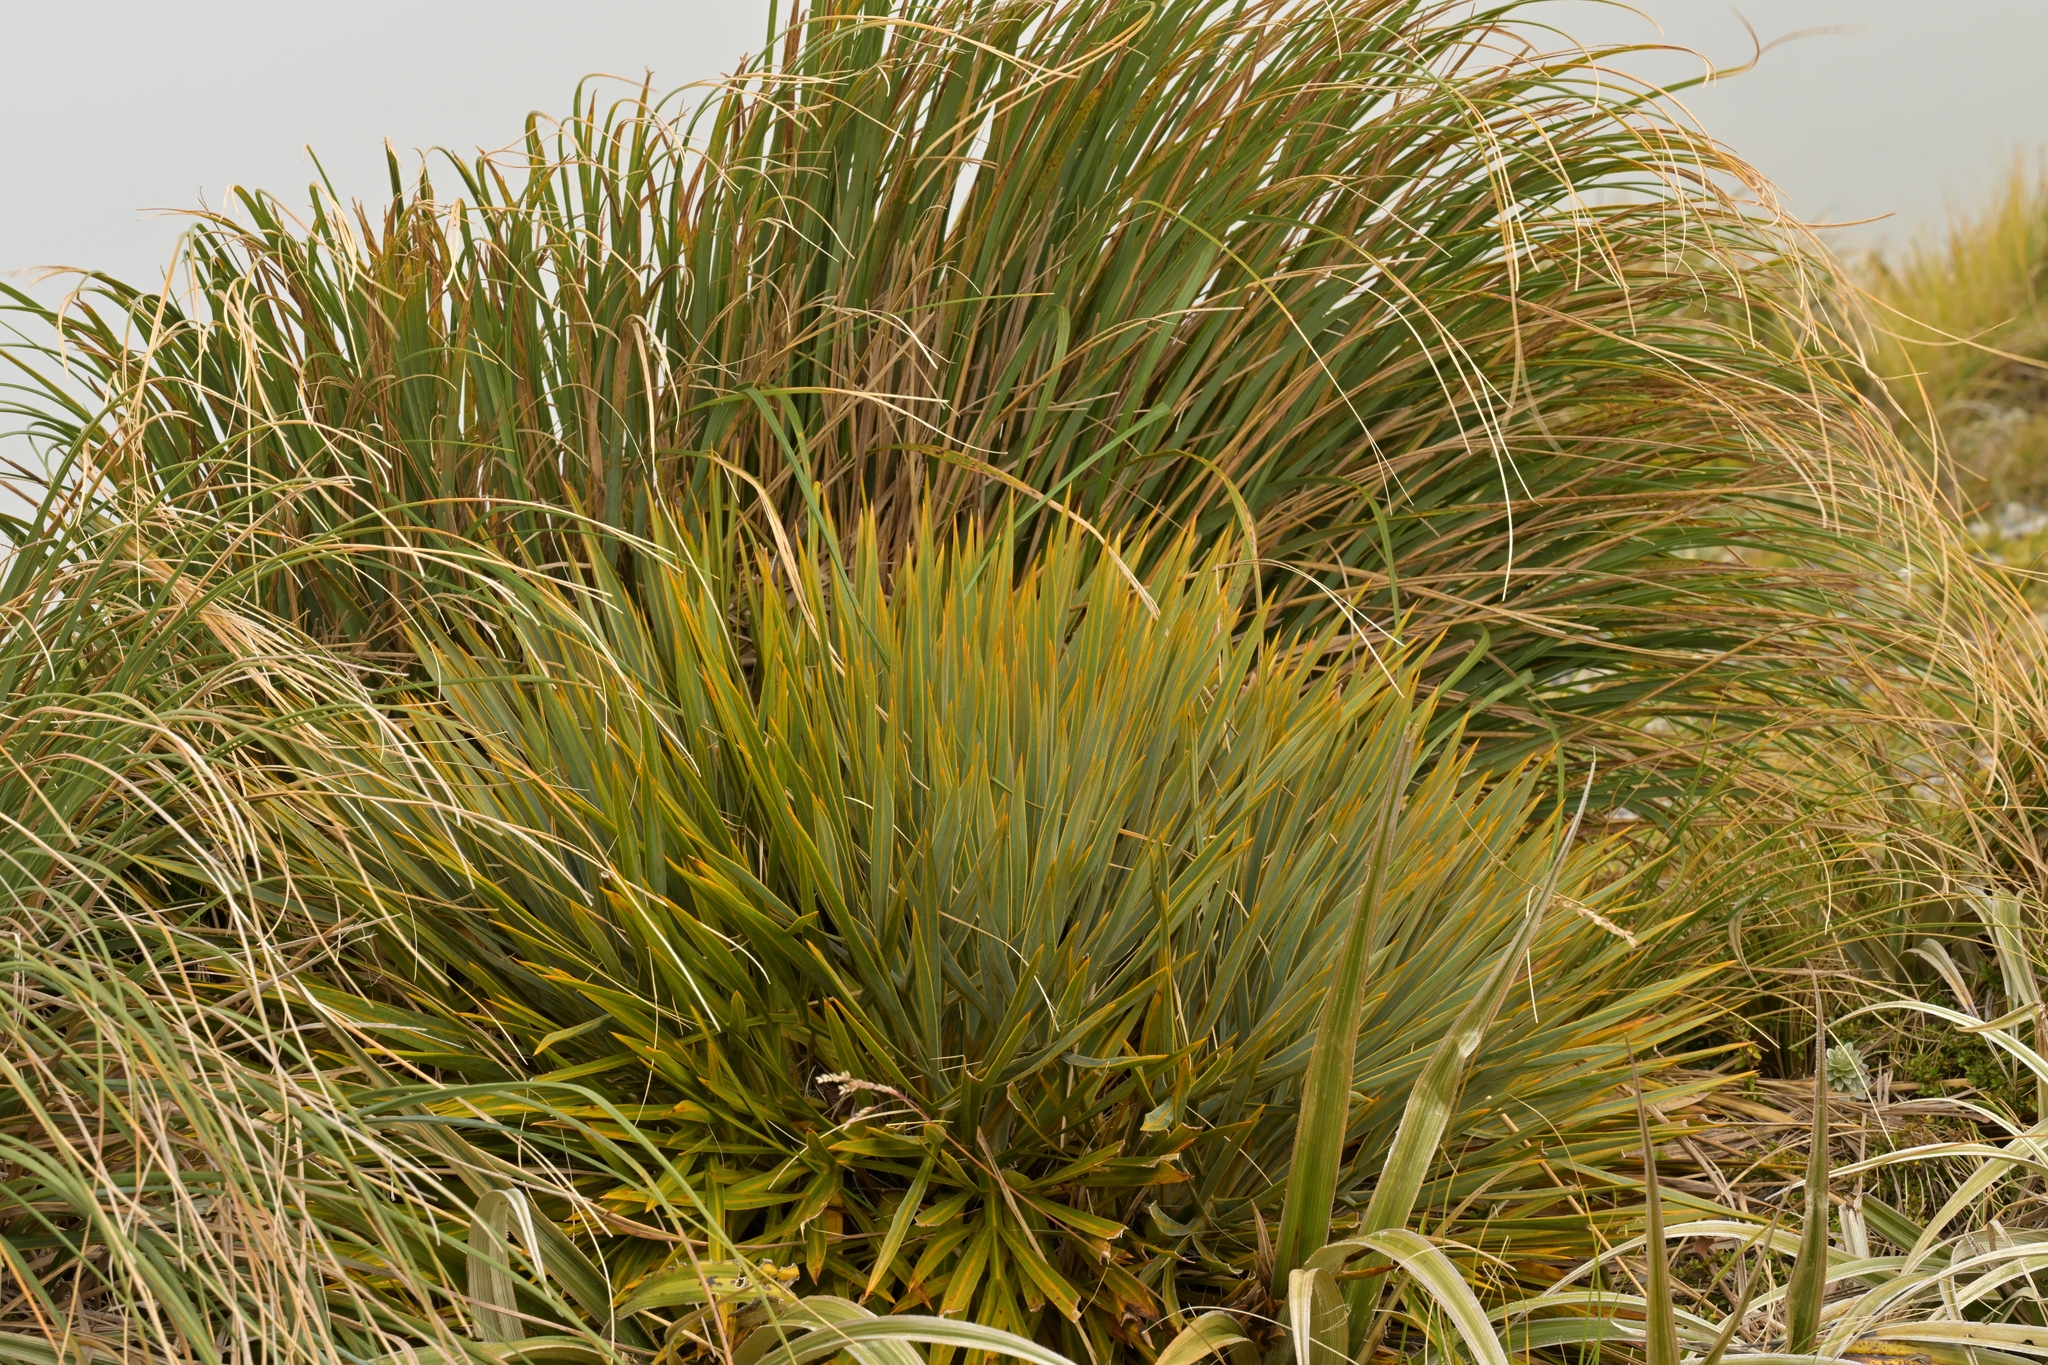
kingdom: Plantae
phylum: Tracheophyta
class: Magnoliopsida
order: Apiales
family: Apiaceae
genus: Aciphylla
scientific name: Aciphylla colensoi
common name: Colenso's spaniard
